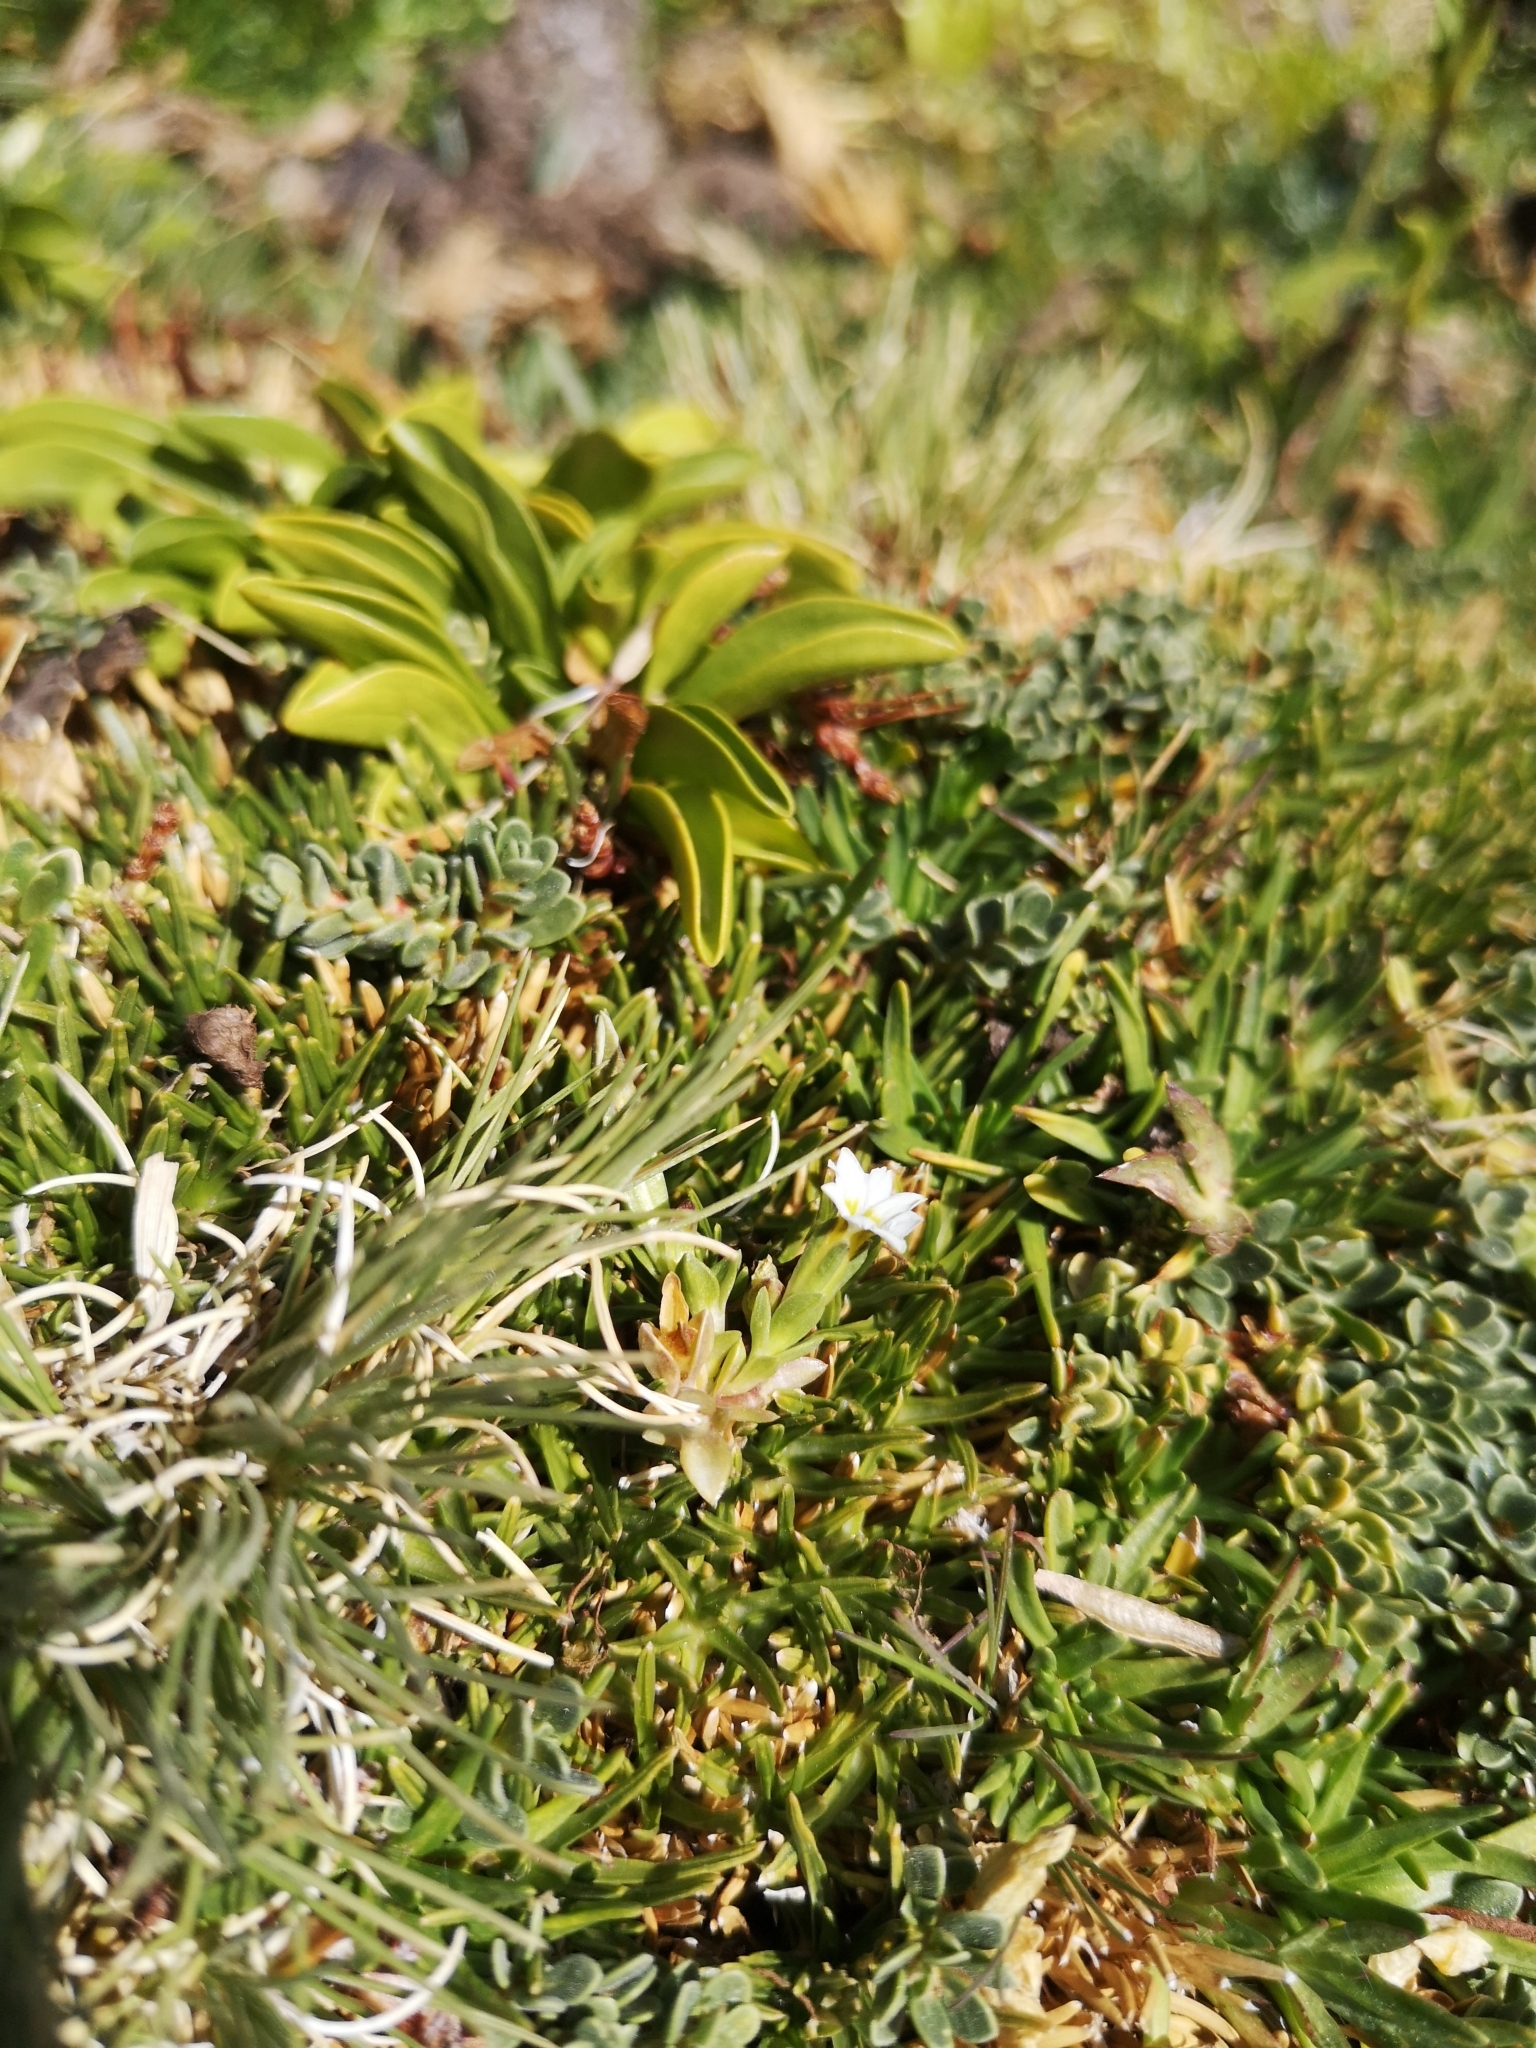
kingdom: Plantae
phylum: Tracheophyta
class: Magnoliopsida
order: Gentianales
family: Gentianaceae
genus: Gentiana
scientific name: Gentiana prostrata
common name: Moss gentian
